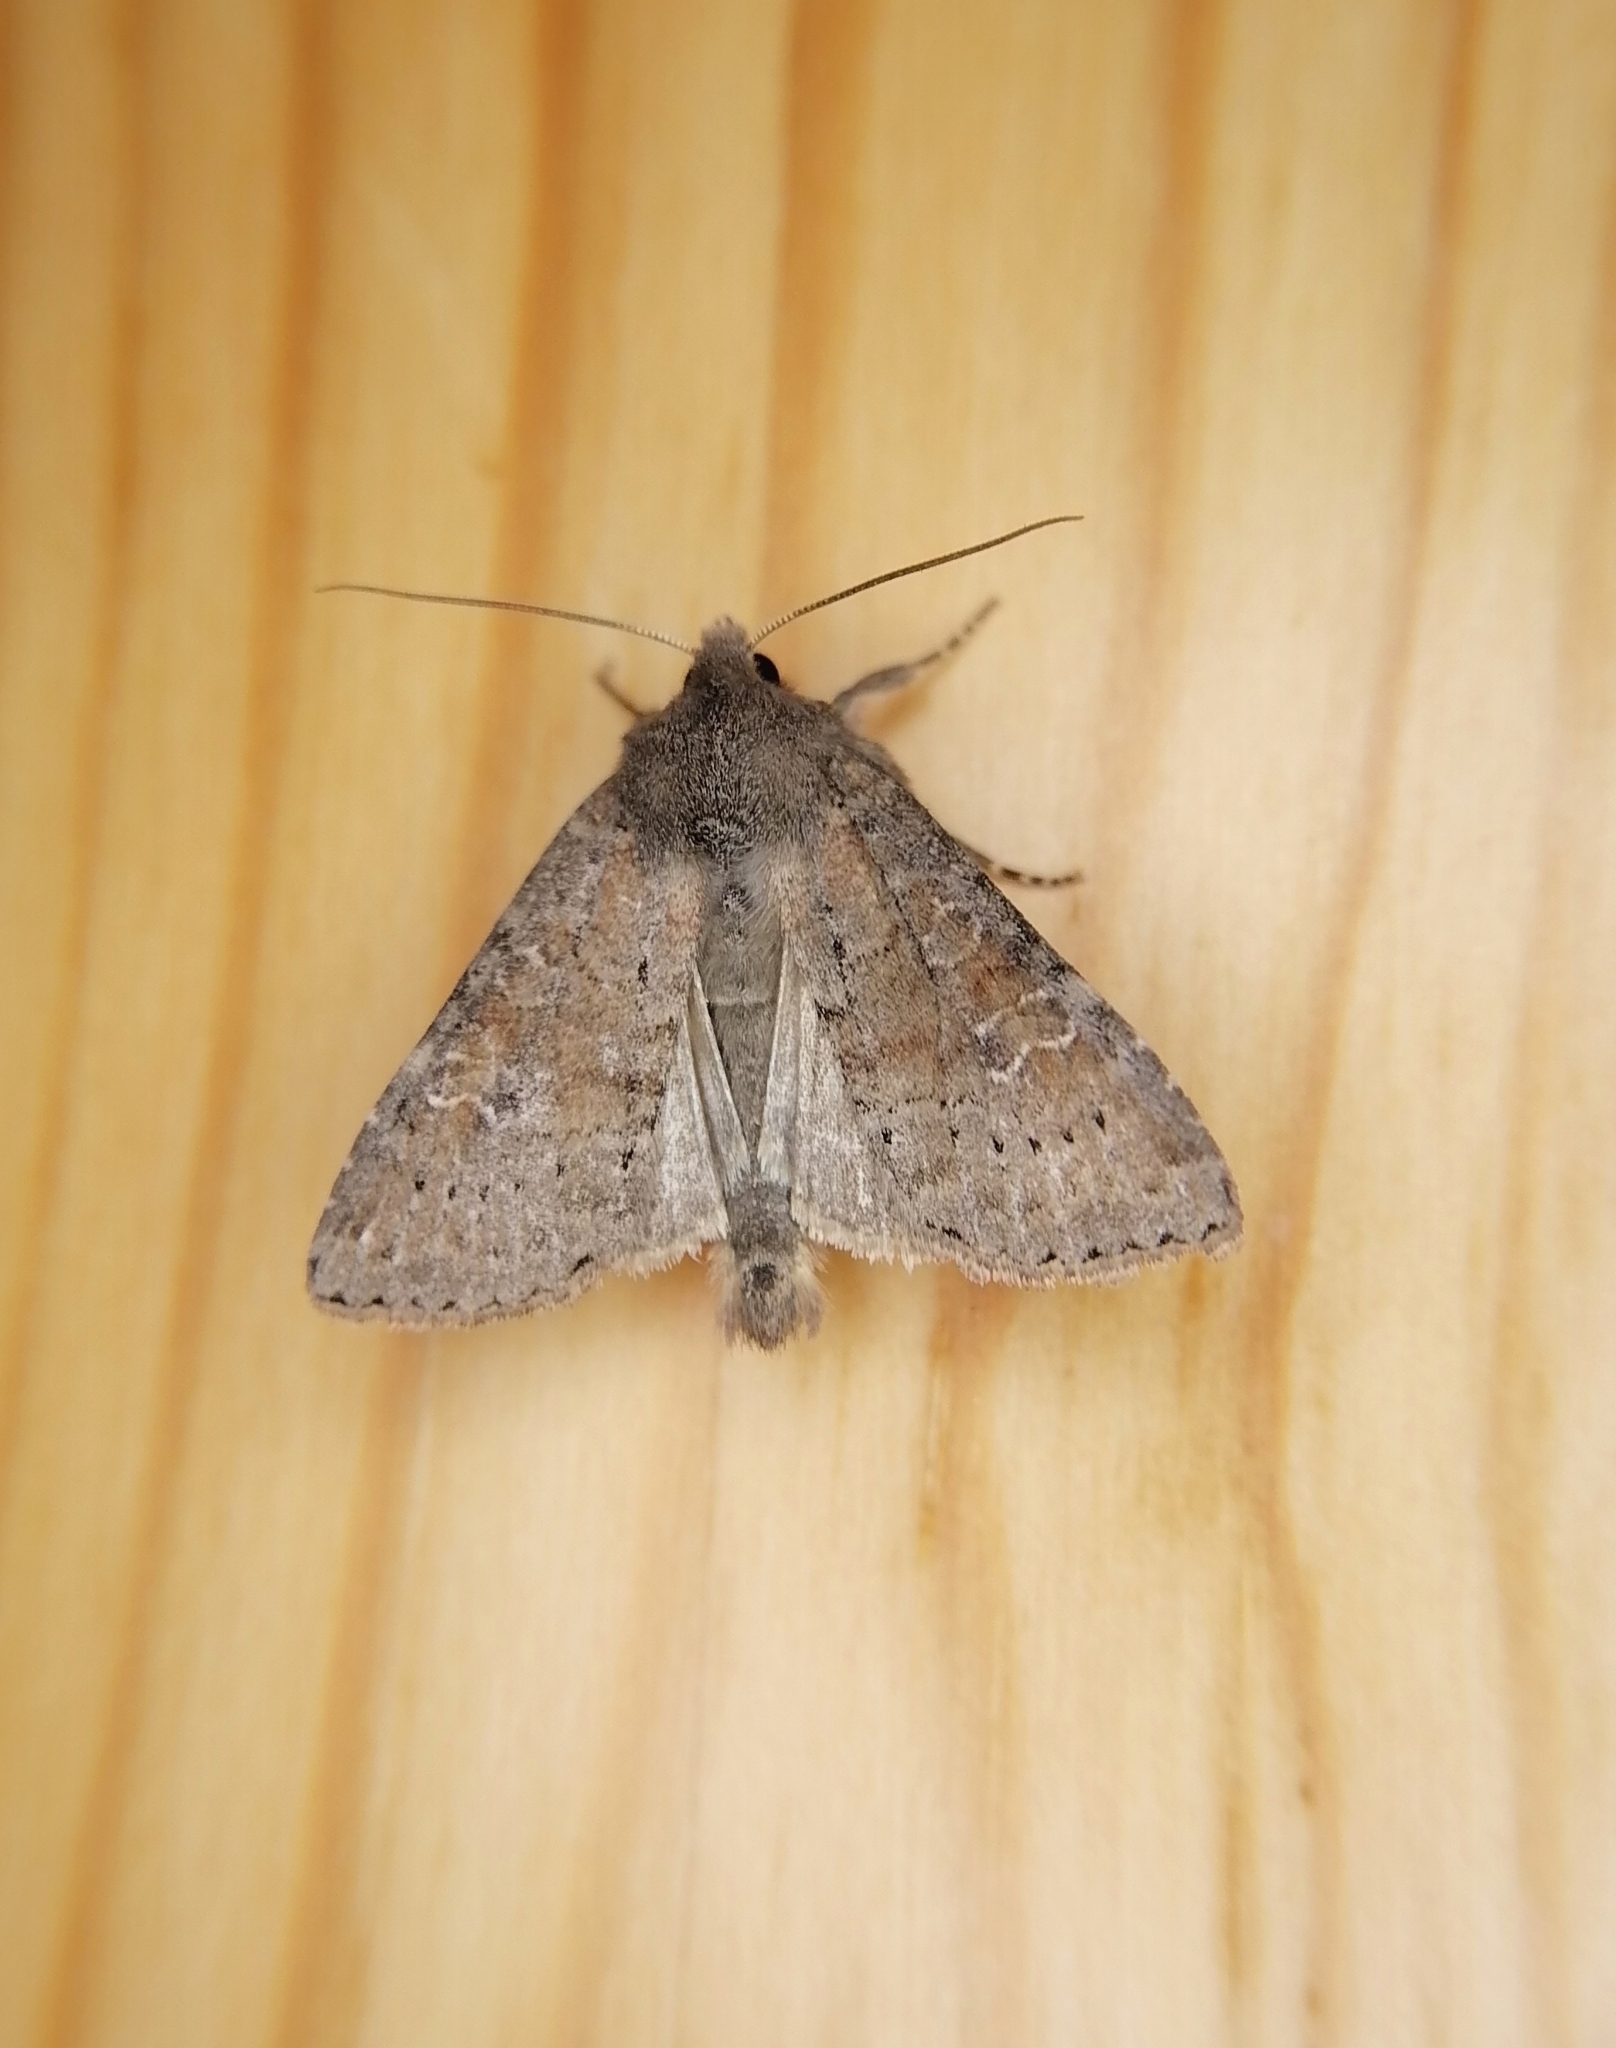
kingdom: Animalia
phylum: Arthropoda
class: Insecta
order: Lepidoptera
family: Noctuidae
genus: Parastichtis
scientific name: Parastichtis suspecta
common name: Suspected
